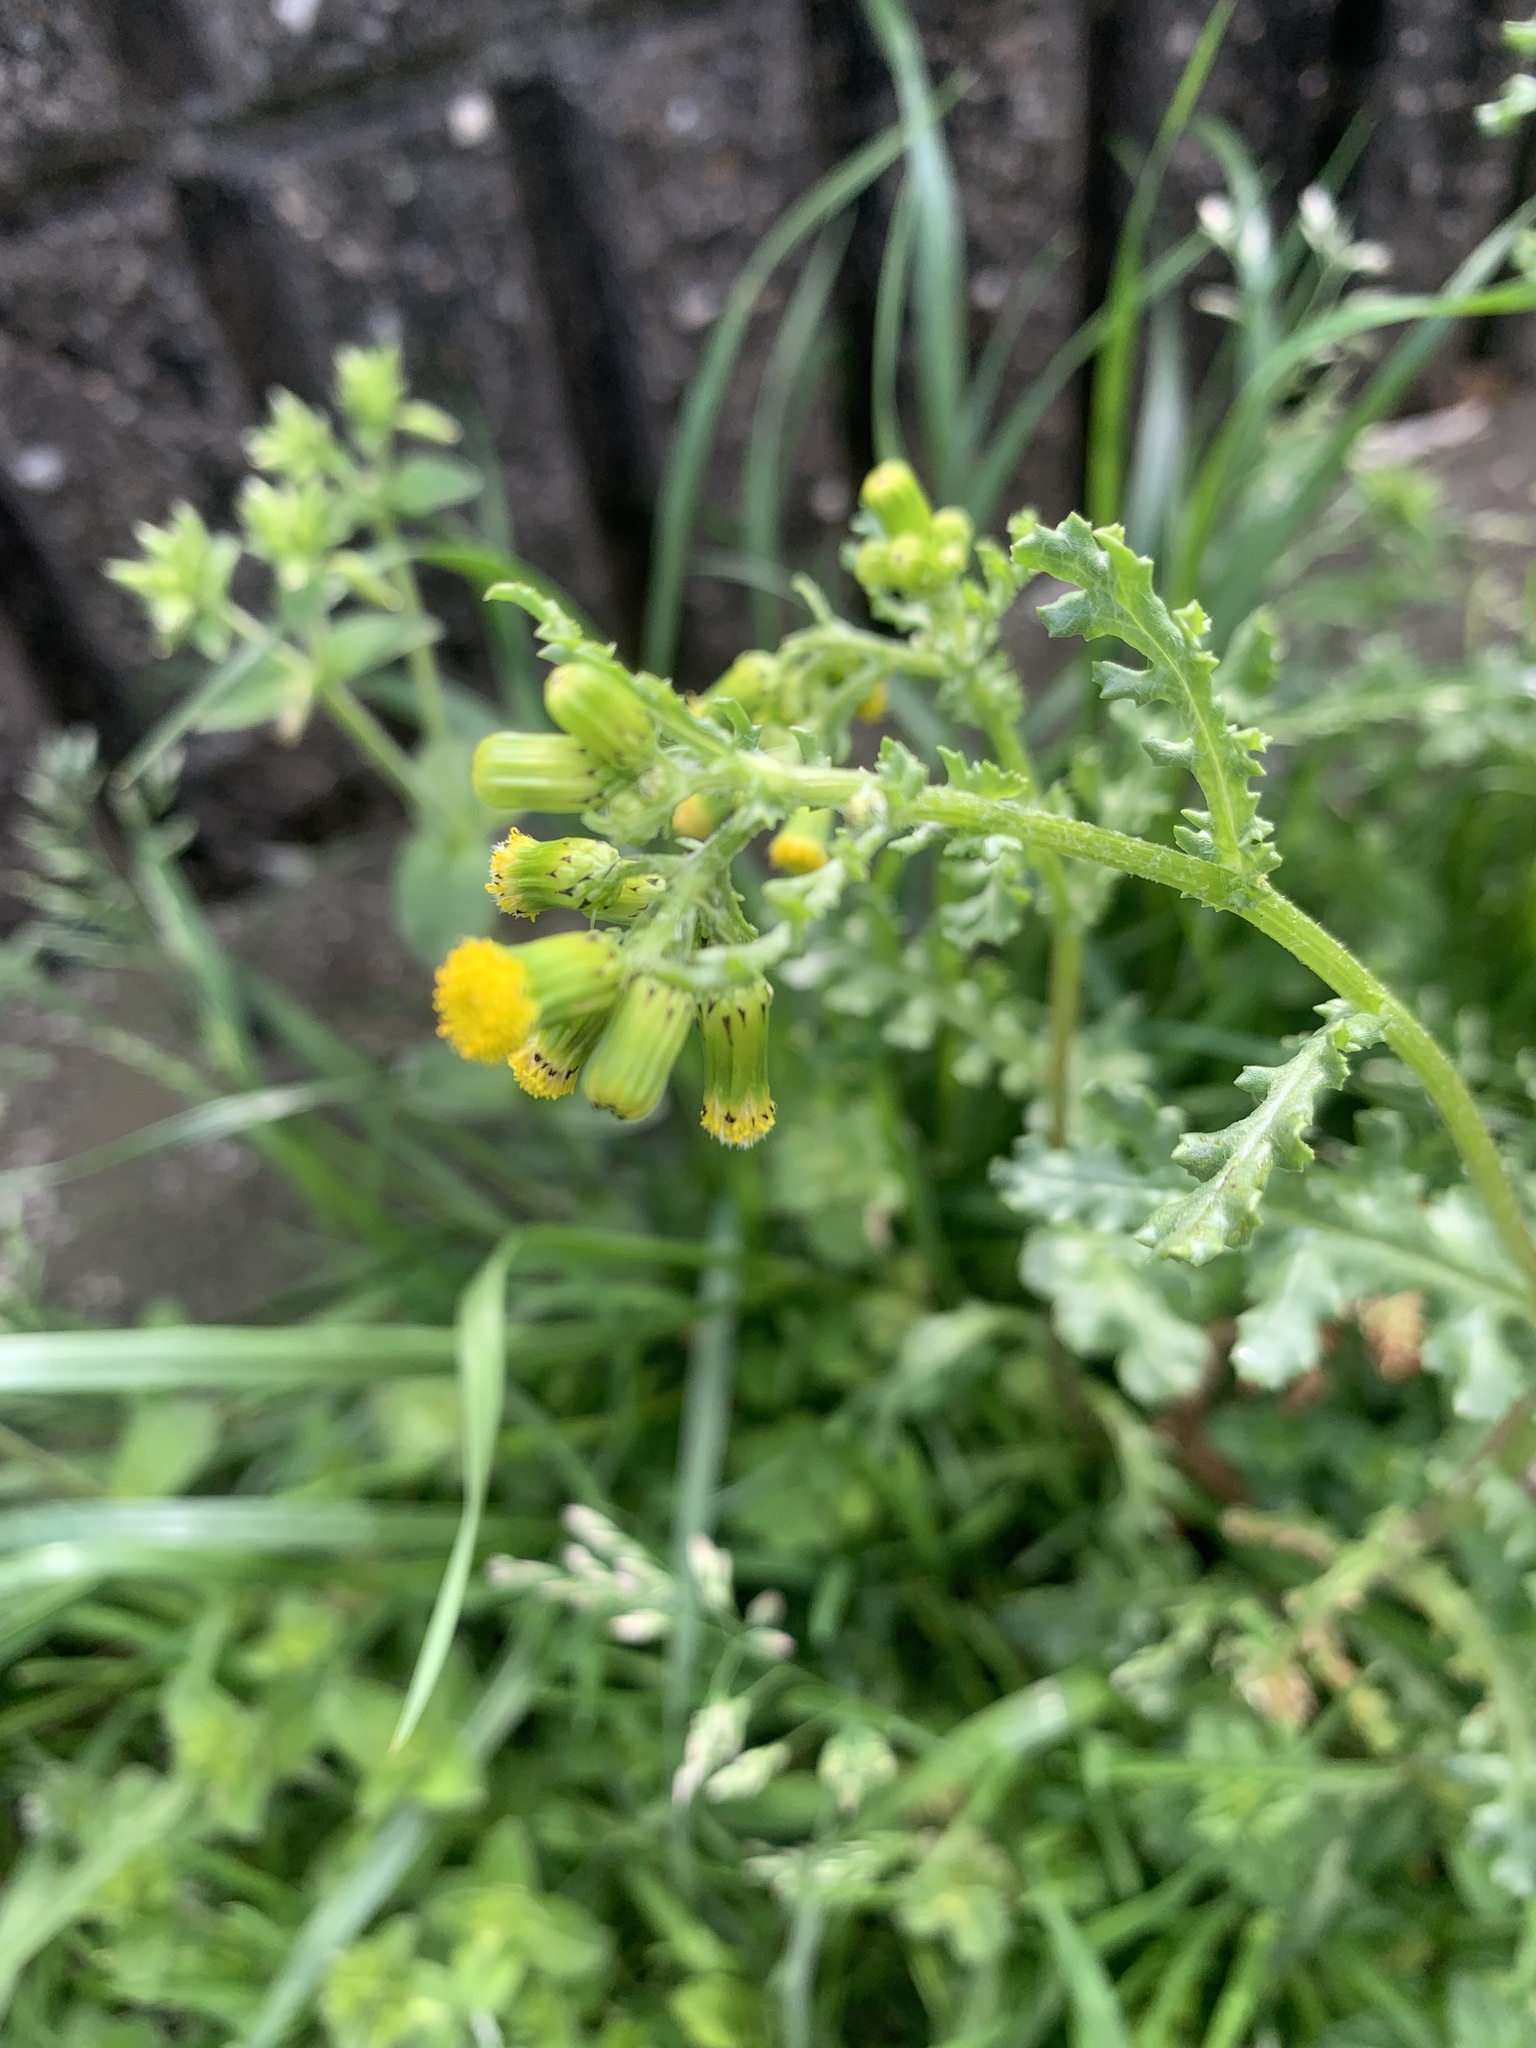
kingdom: Plantae
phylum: Tracheophyta
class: Magnoliopsida
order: Asterales
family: Asteraceae
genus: Senecio
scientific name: Senecio vulgaris
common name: Old-man-in-the-spring
